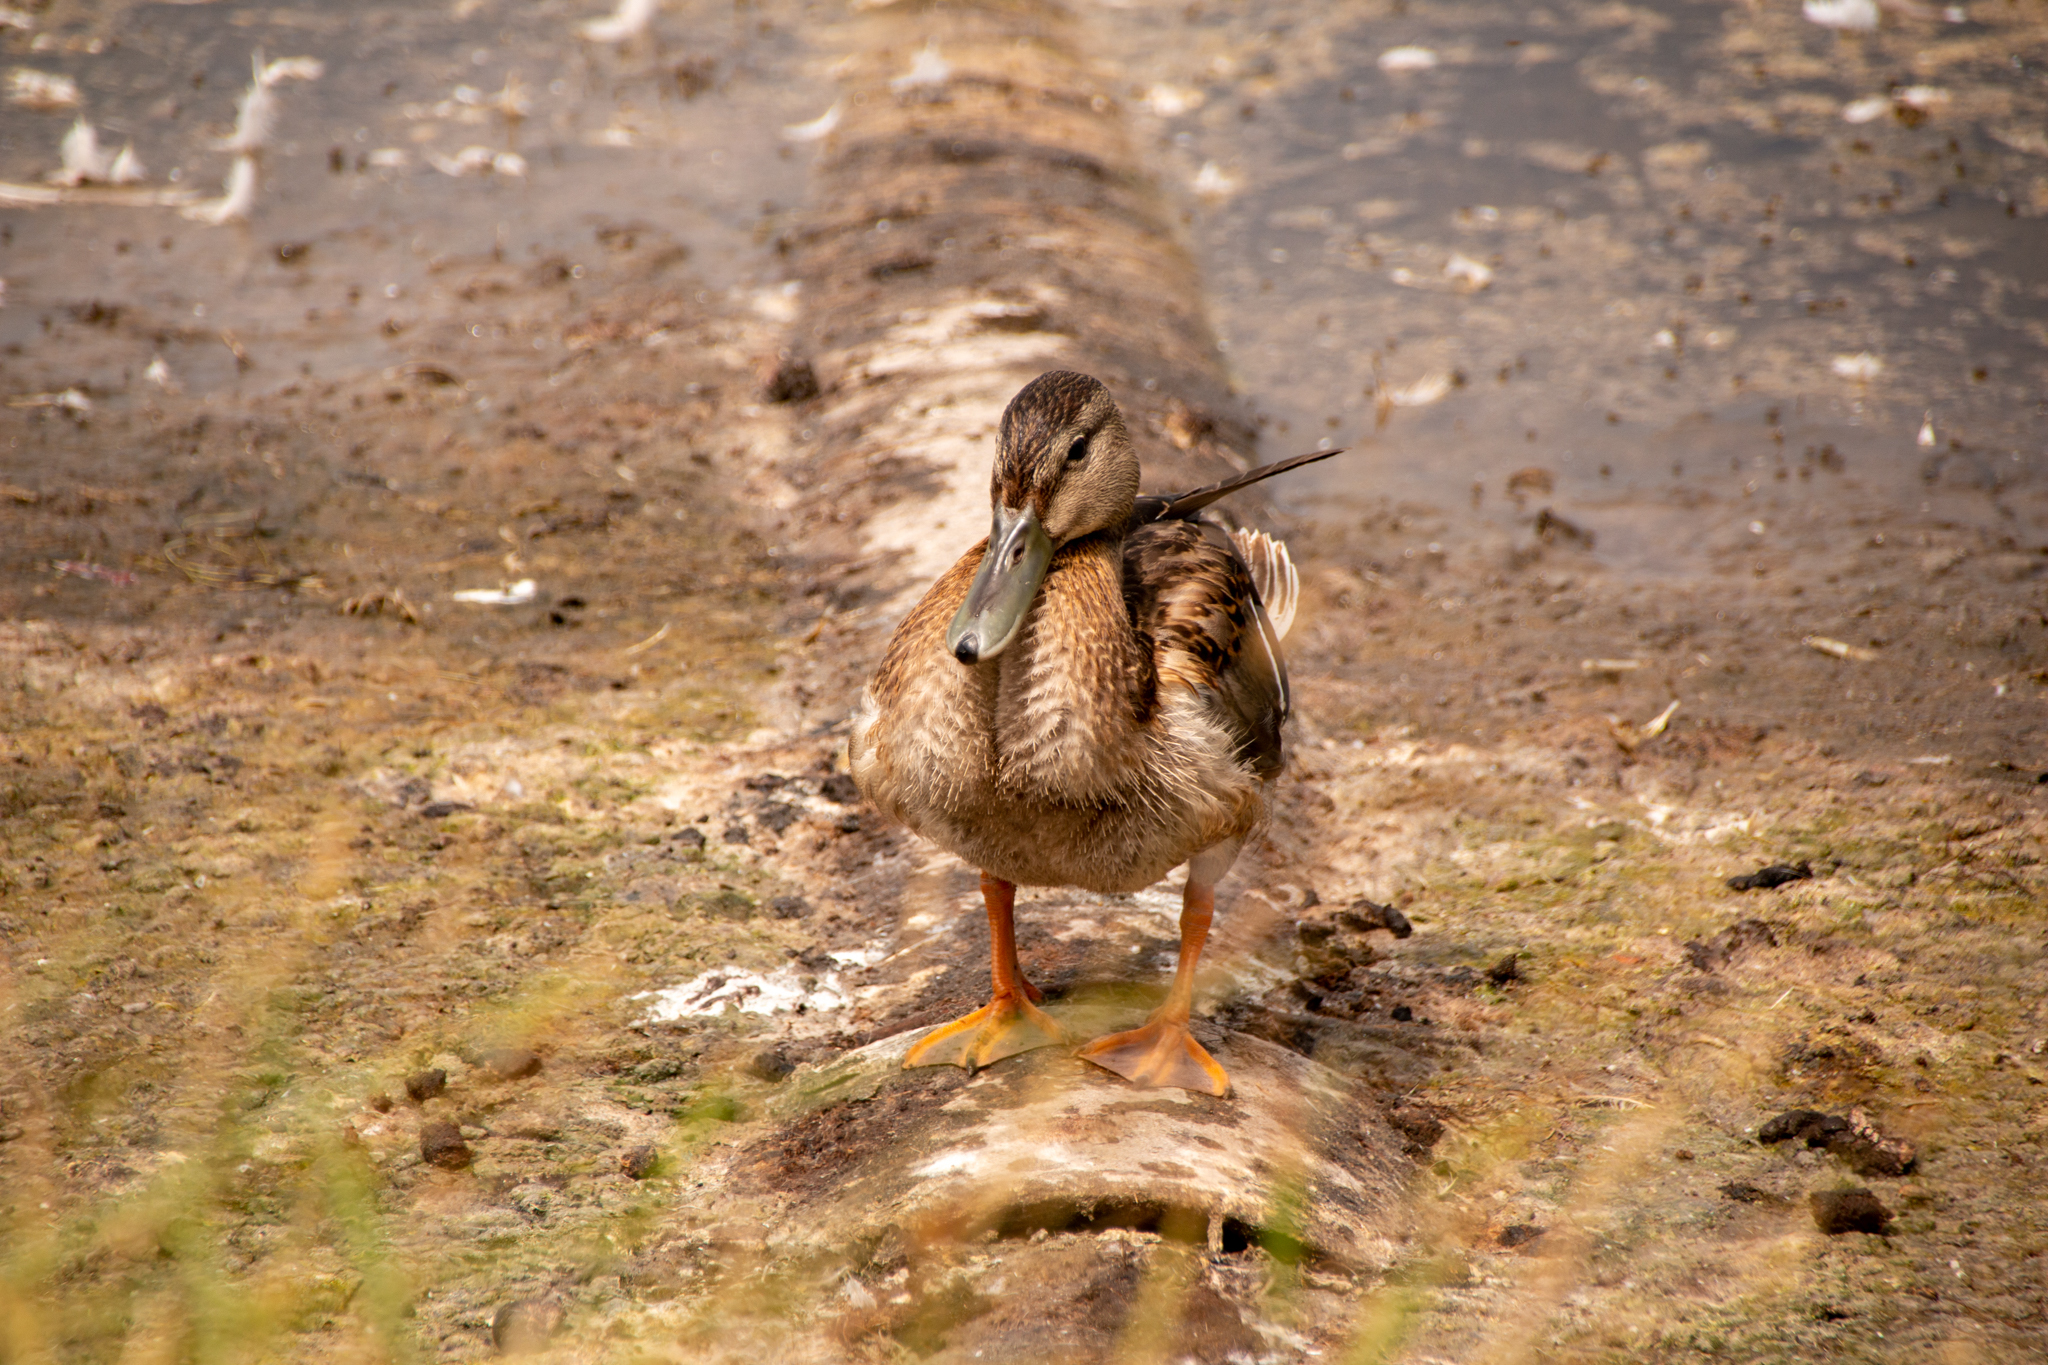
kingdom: Animalia
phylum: Chordata
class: Aves
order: Anseriformes
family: Anatidae
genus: Anas
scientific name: Anas platyrhynchos
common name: Mallard
